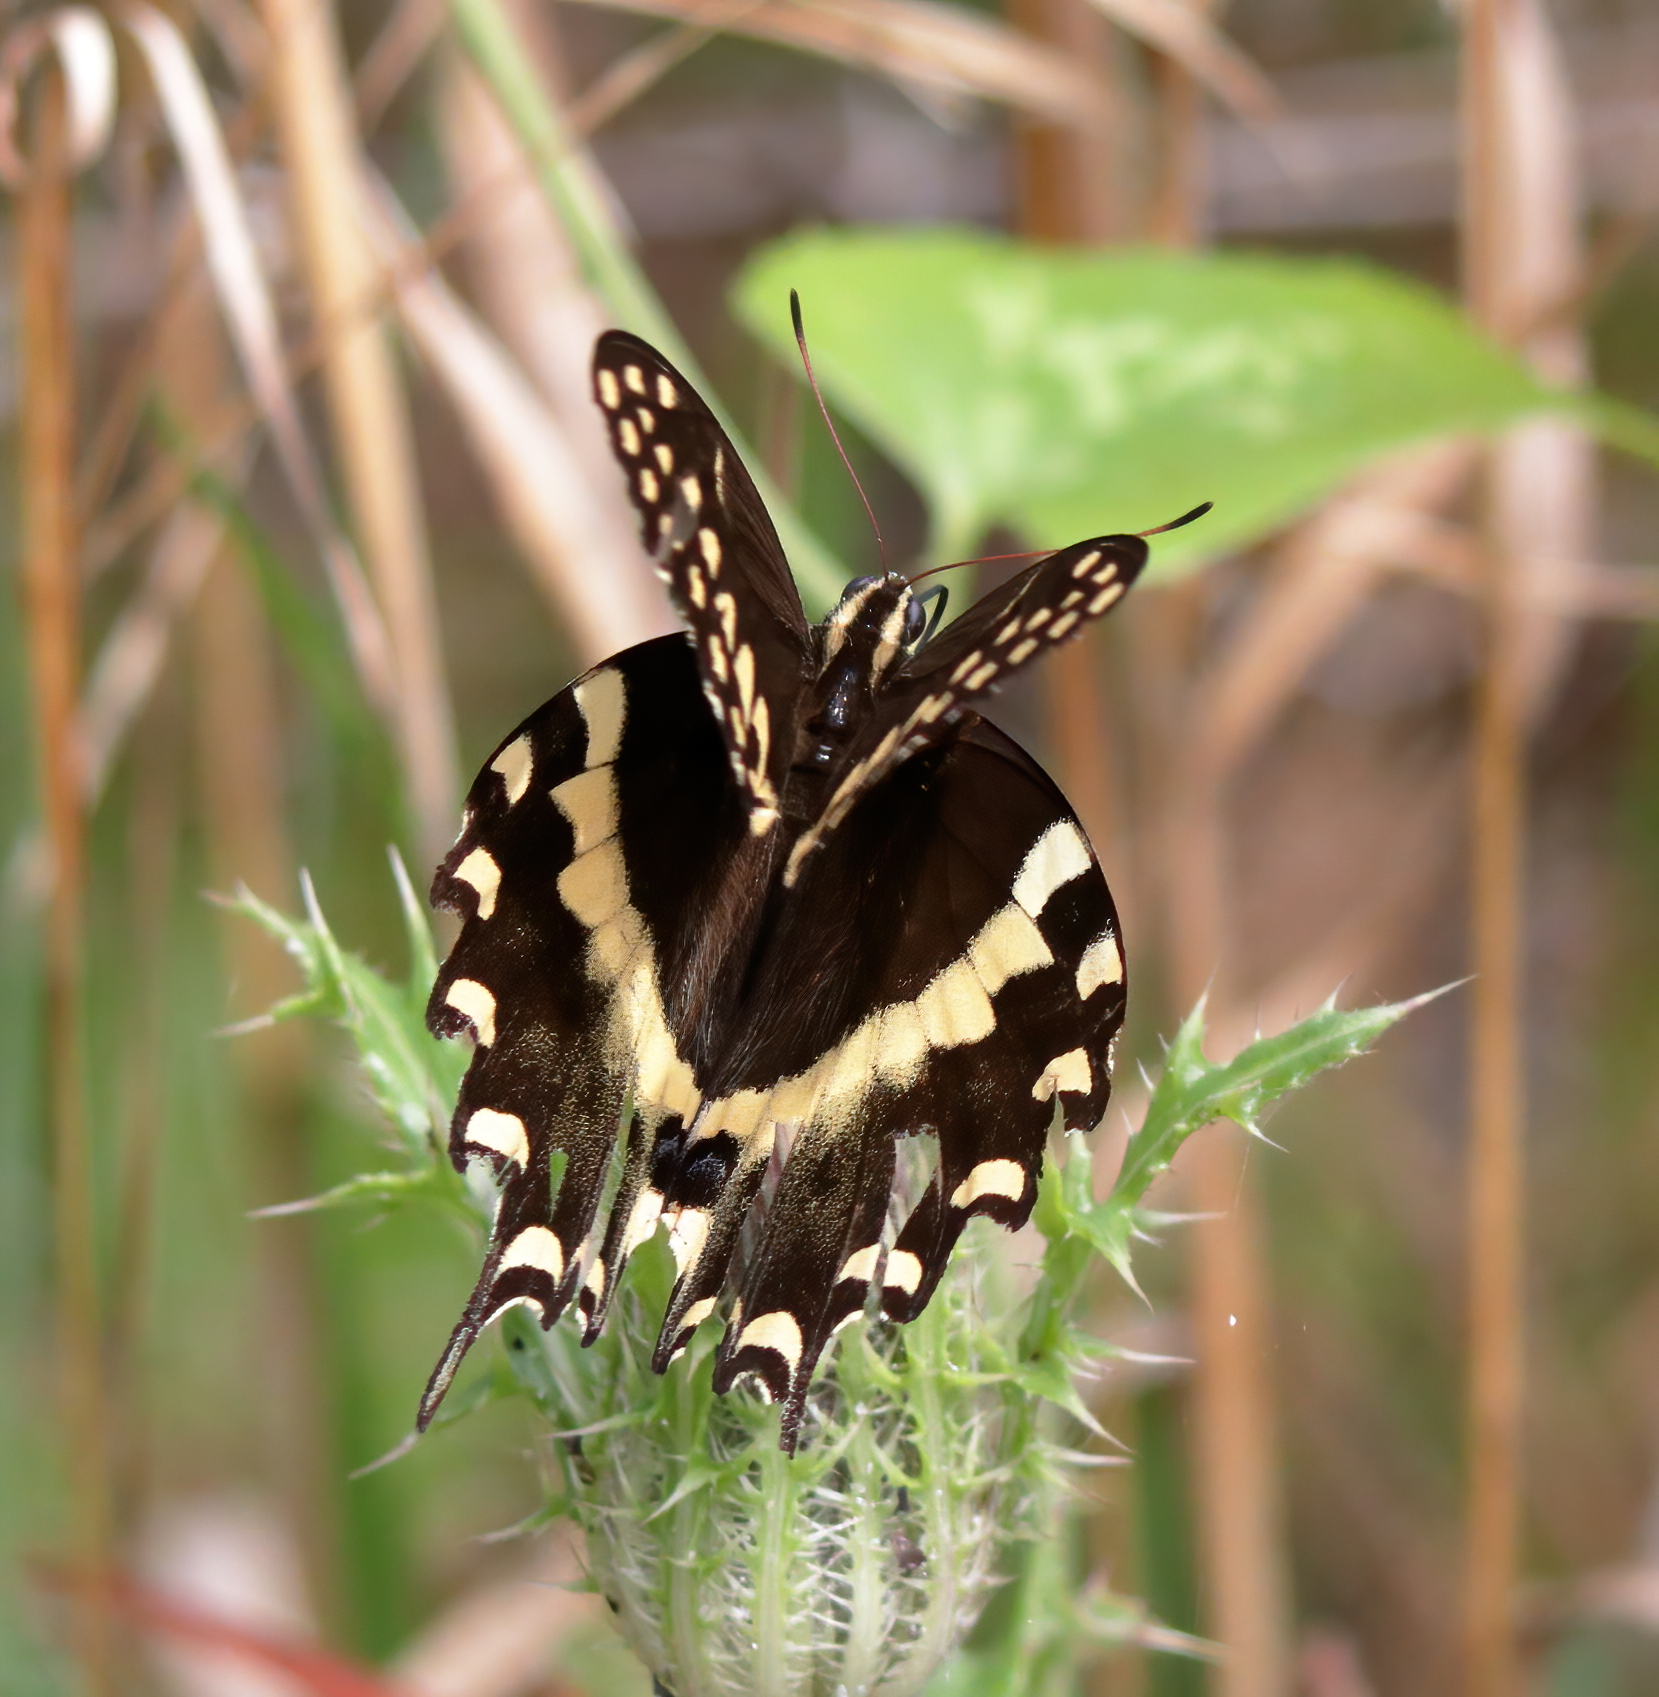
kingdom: Animalia
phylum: Arthropoda
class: Insecta
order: Lepidoptera
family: Papilionidae
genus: Papilio
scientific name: Papilio palamedes
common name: Palamedes swallowtail
